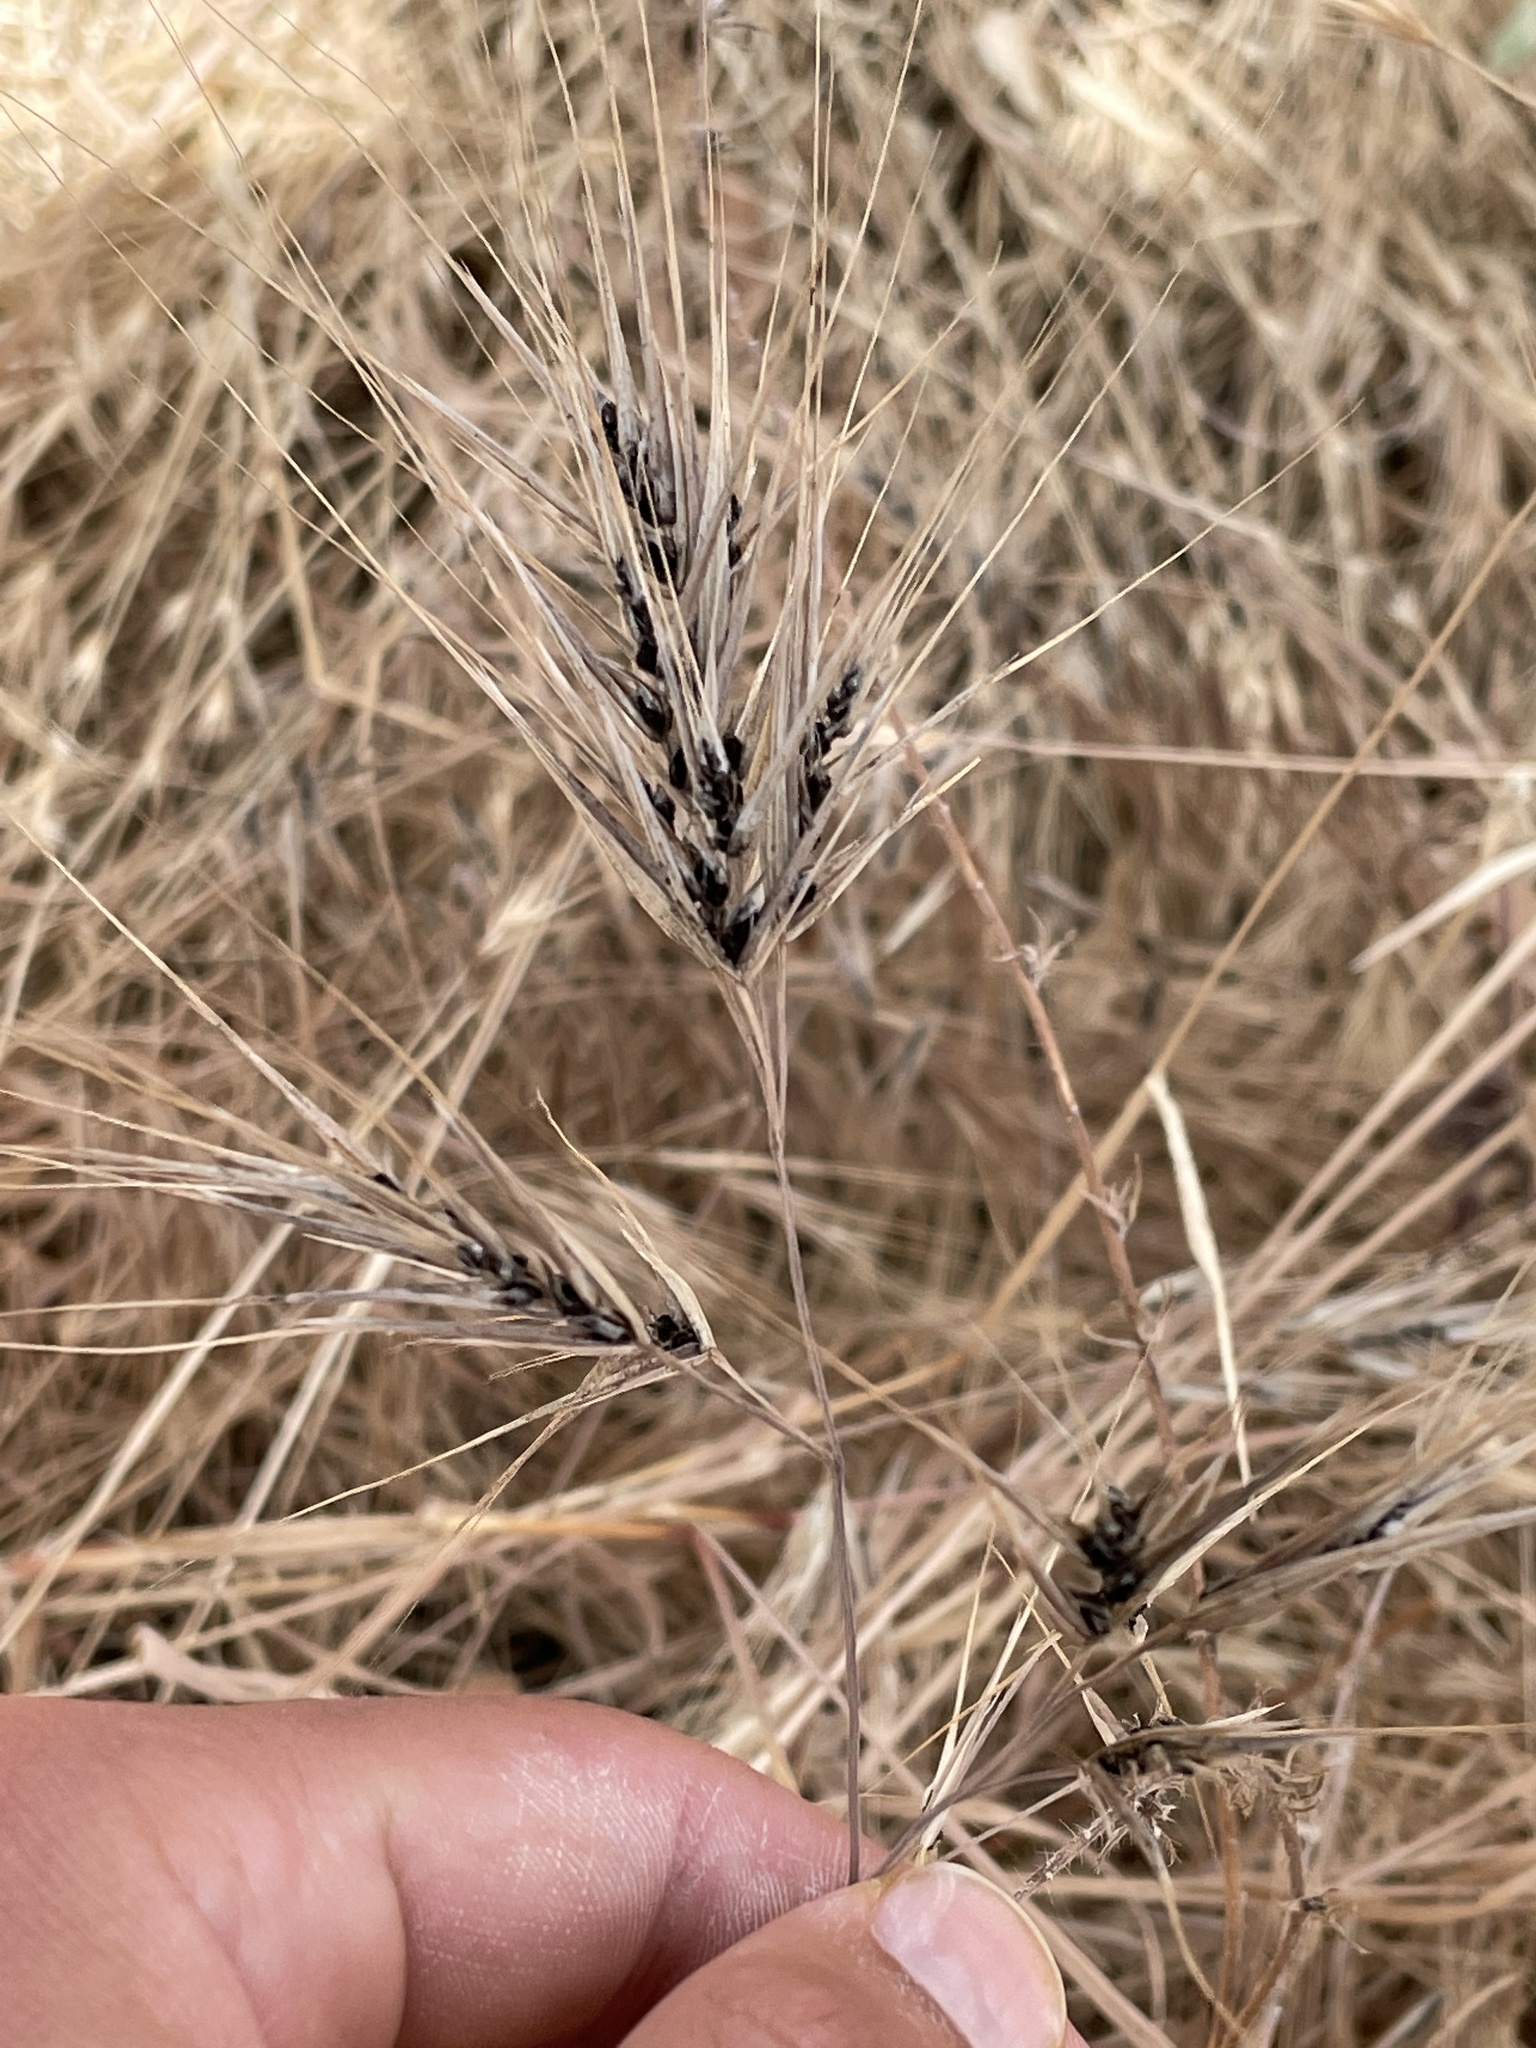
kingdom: Fungi
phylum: Basidiomycota
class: Ustilaginomycetes
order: Ustilaginales
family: Ustilaginaceae
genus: Ustilago
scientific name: Ustilago bullata
